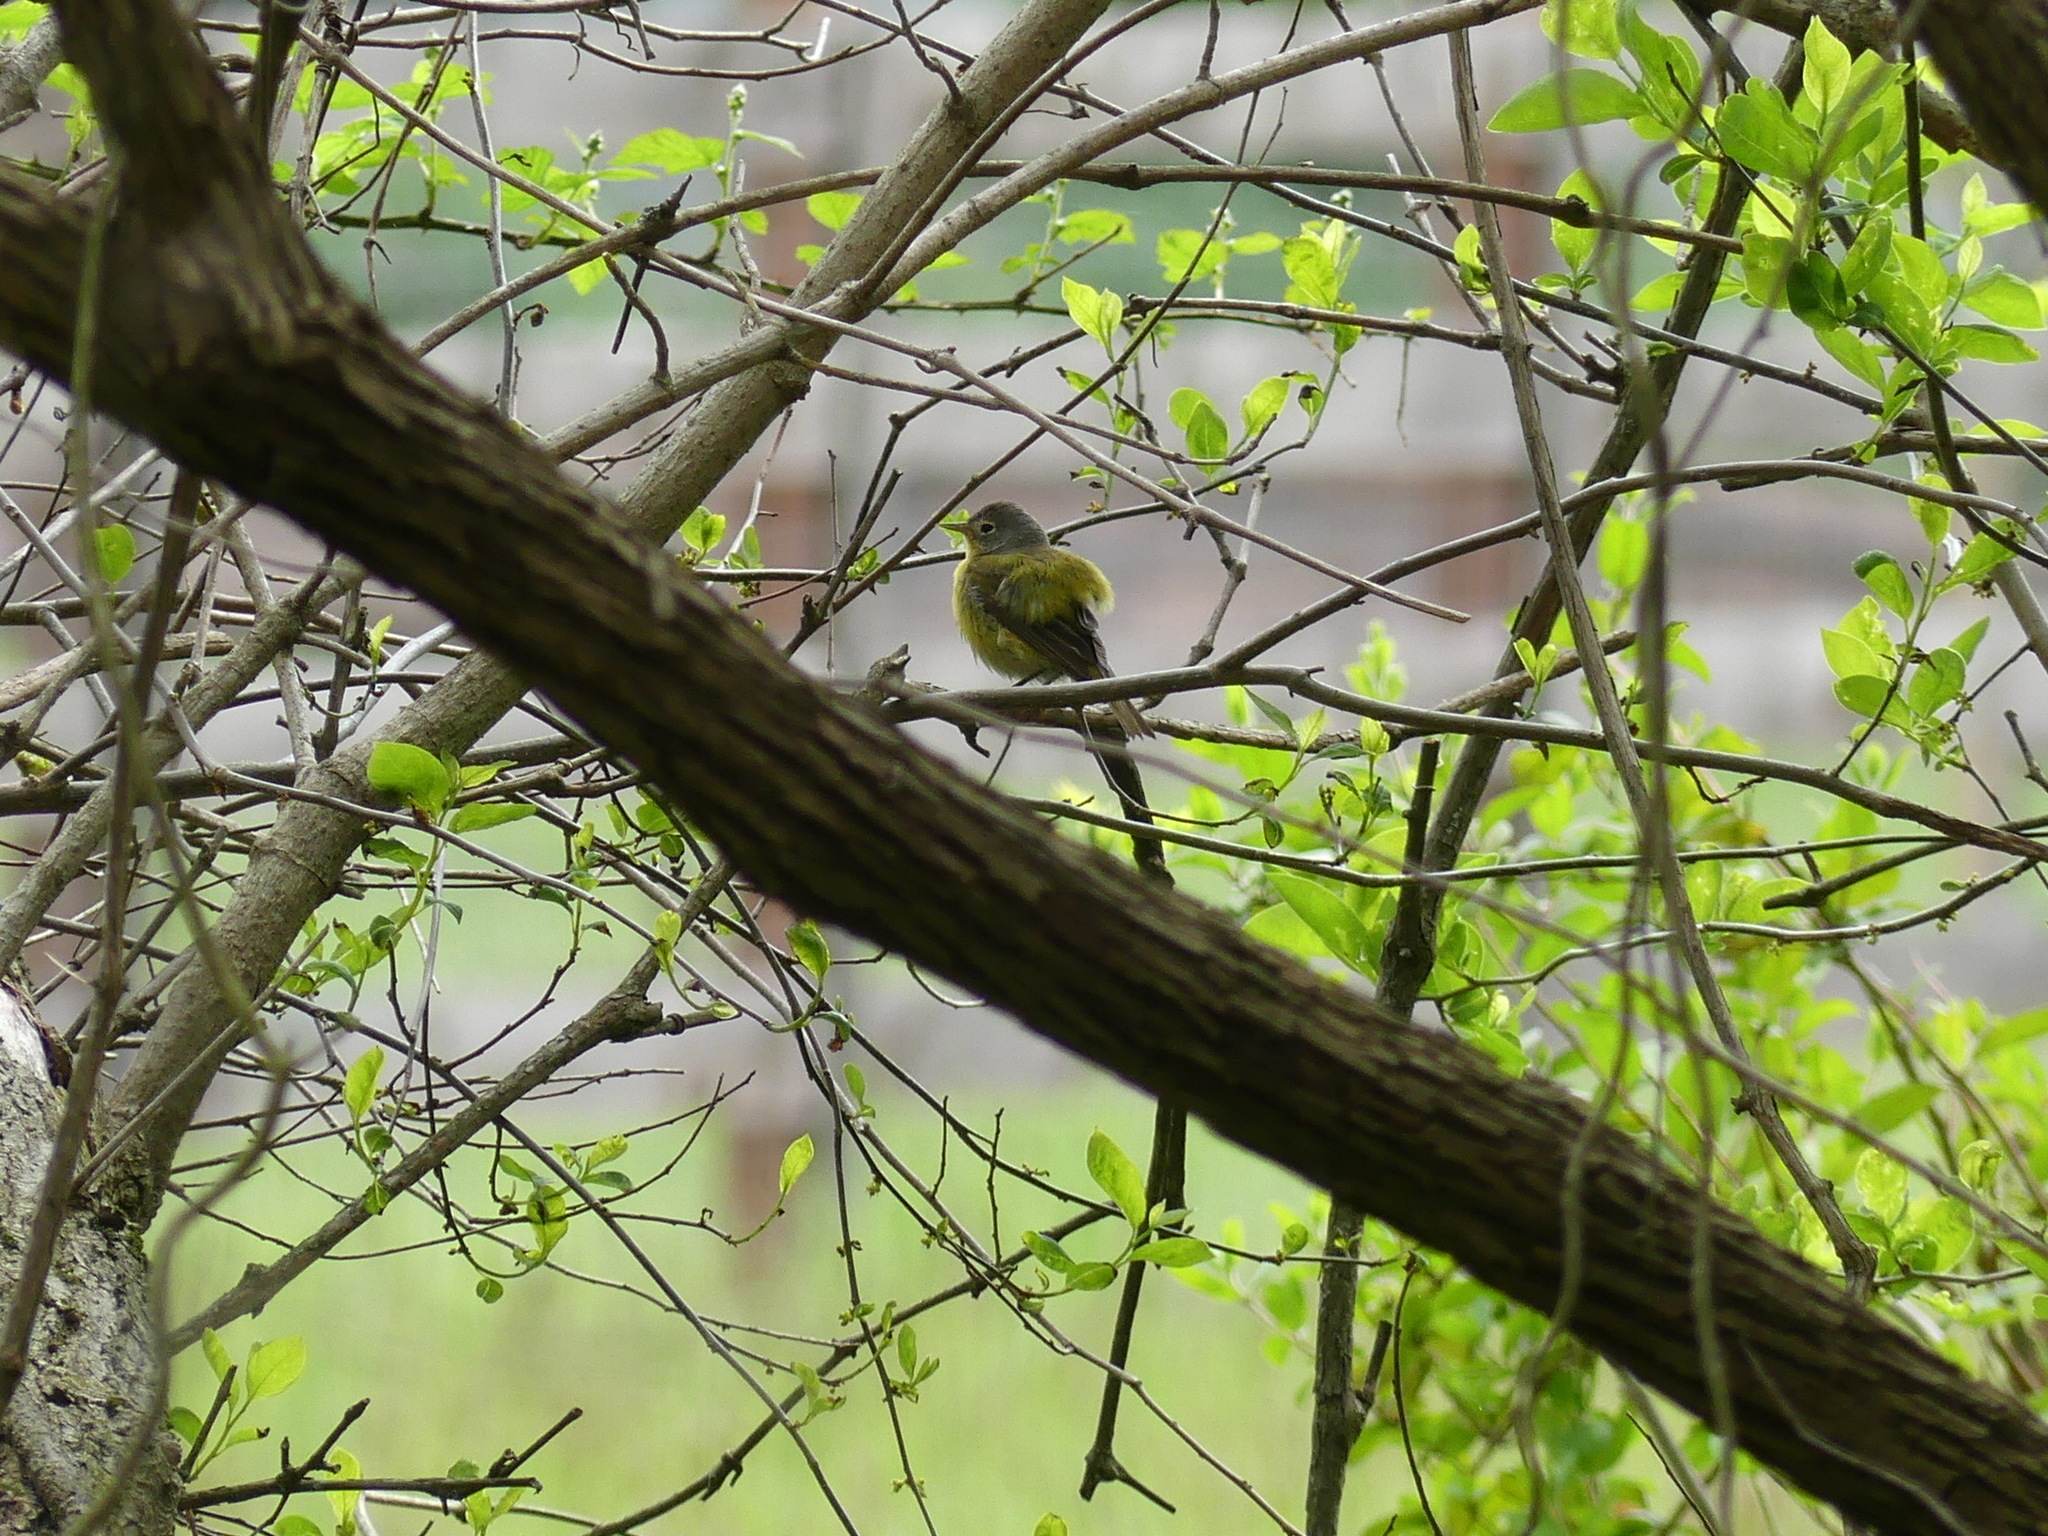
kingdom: Animalia
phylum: Chordata
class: Aves
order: Passeriformes
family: Parulidae
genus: Leiothlypis
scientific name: Leiothlypis ruficapilla
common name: Nashville warbler
